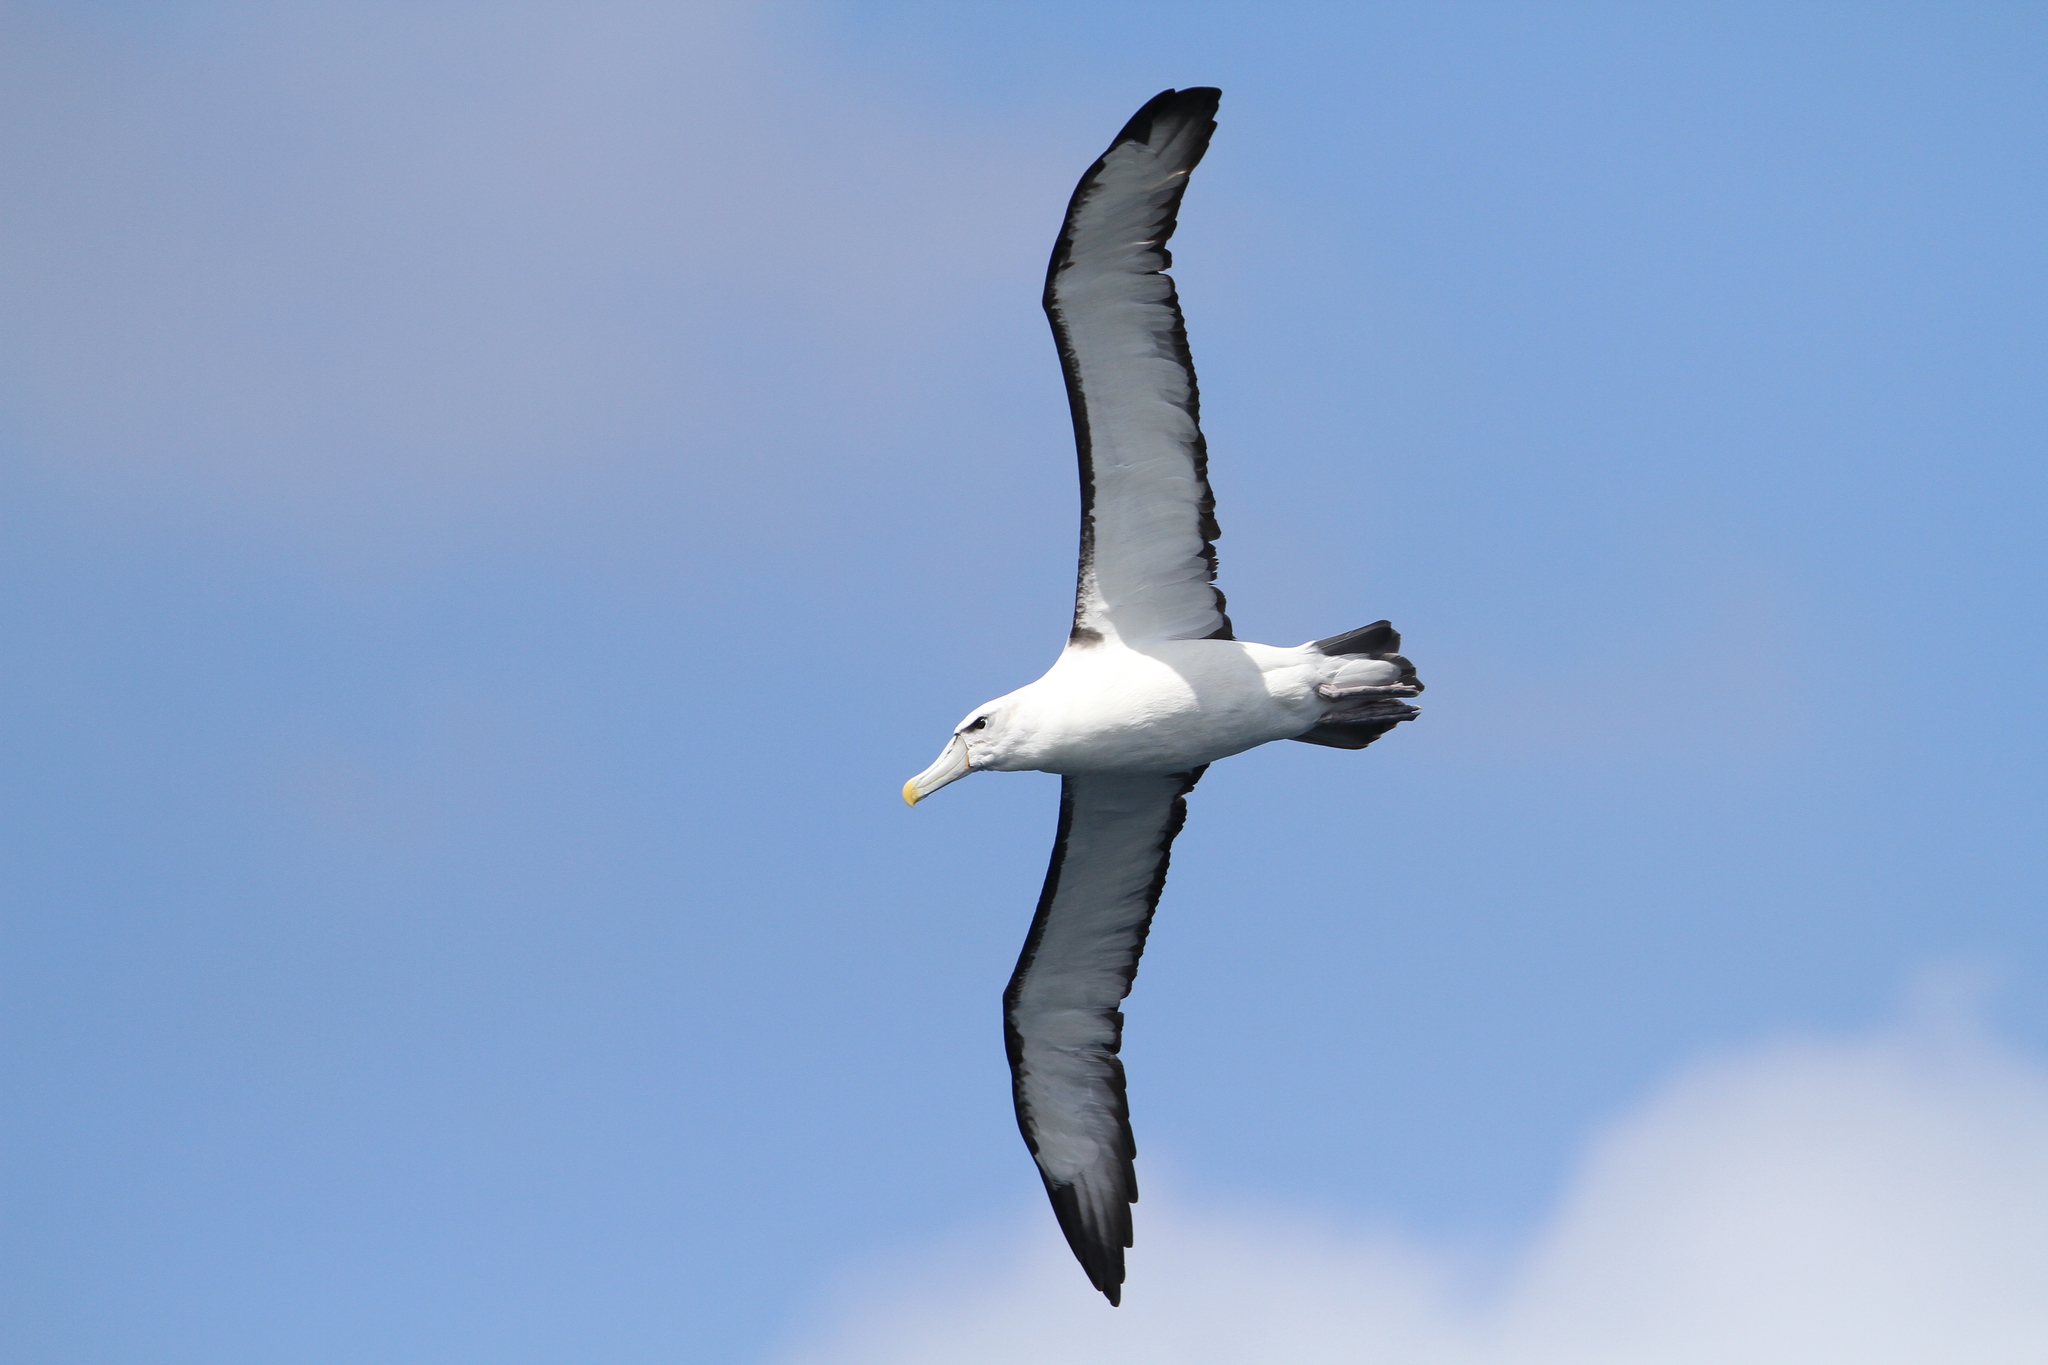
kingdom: Animalia
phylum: Chordata
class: Aves
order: Procellariiformes
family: Diomedeidae
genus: Thalassarche
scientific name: Thalassarche cauta
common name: Shy albatross
